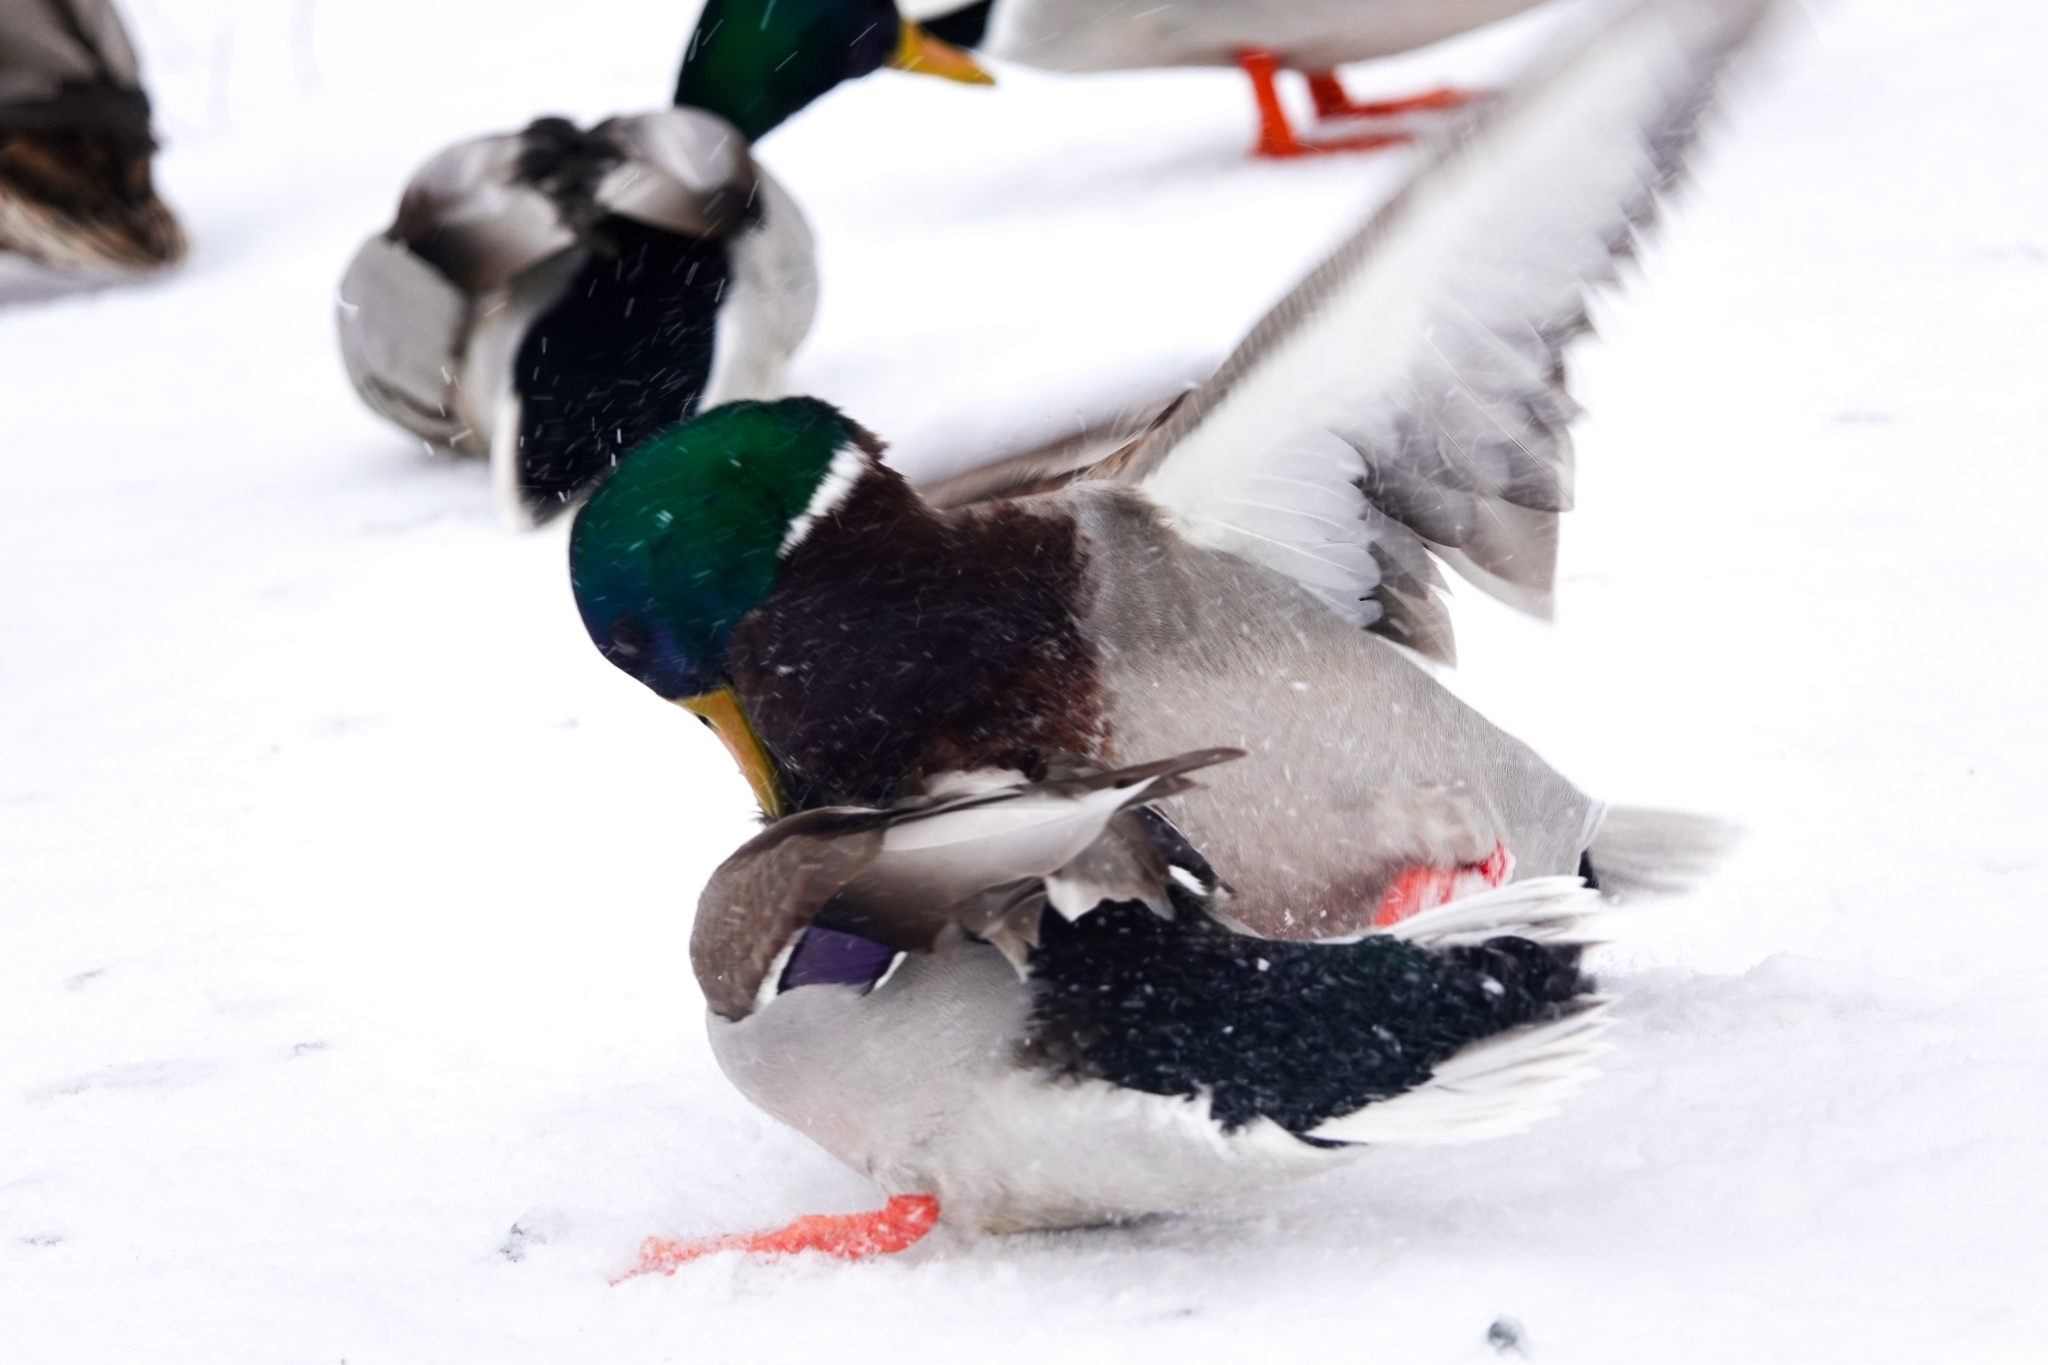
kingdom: Animalia
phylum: Chordata
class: Aves
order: Anseriformes
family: Anatidae
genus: Anas
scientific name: Anas platyrhynchos
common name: Mallard
